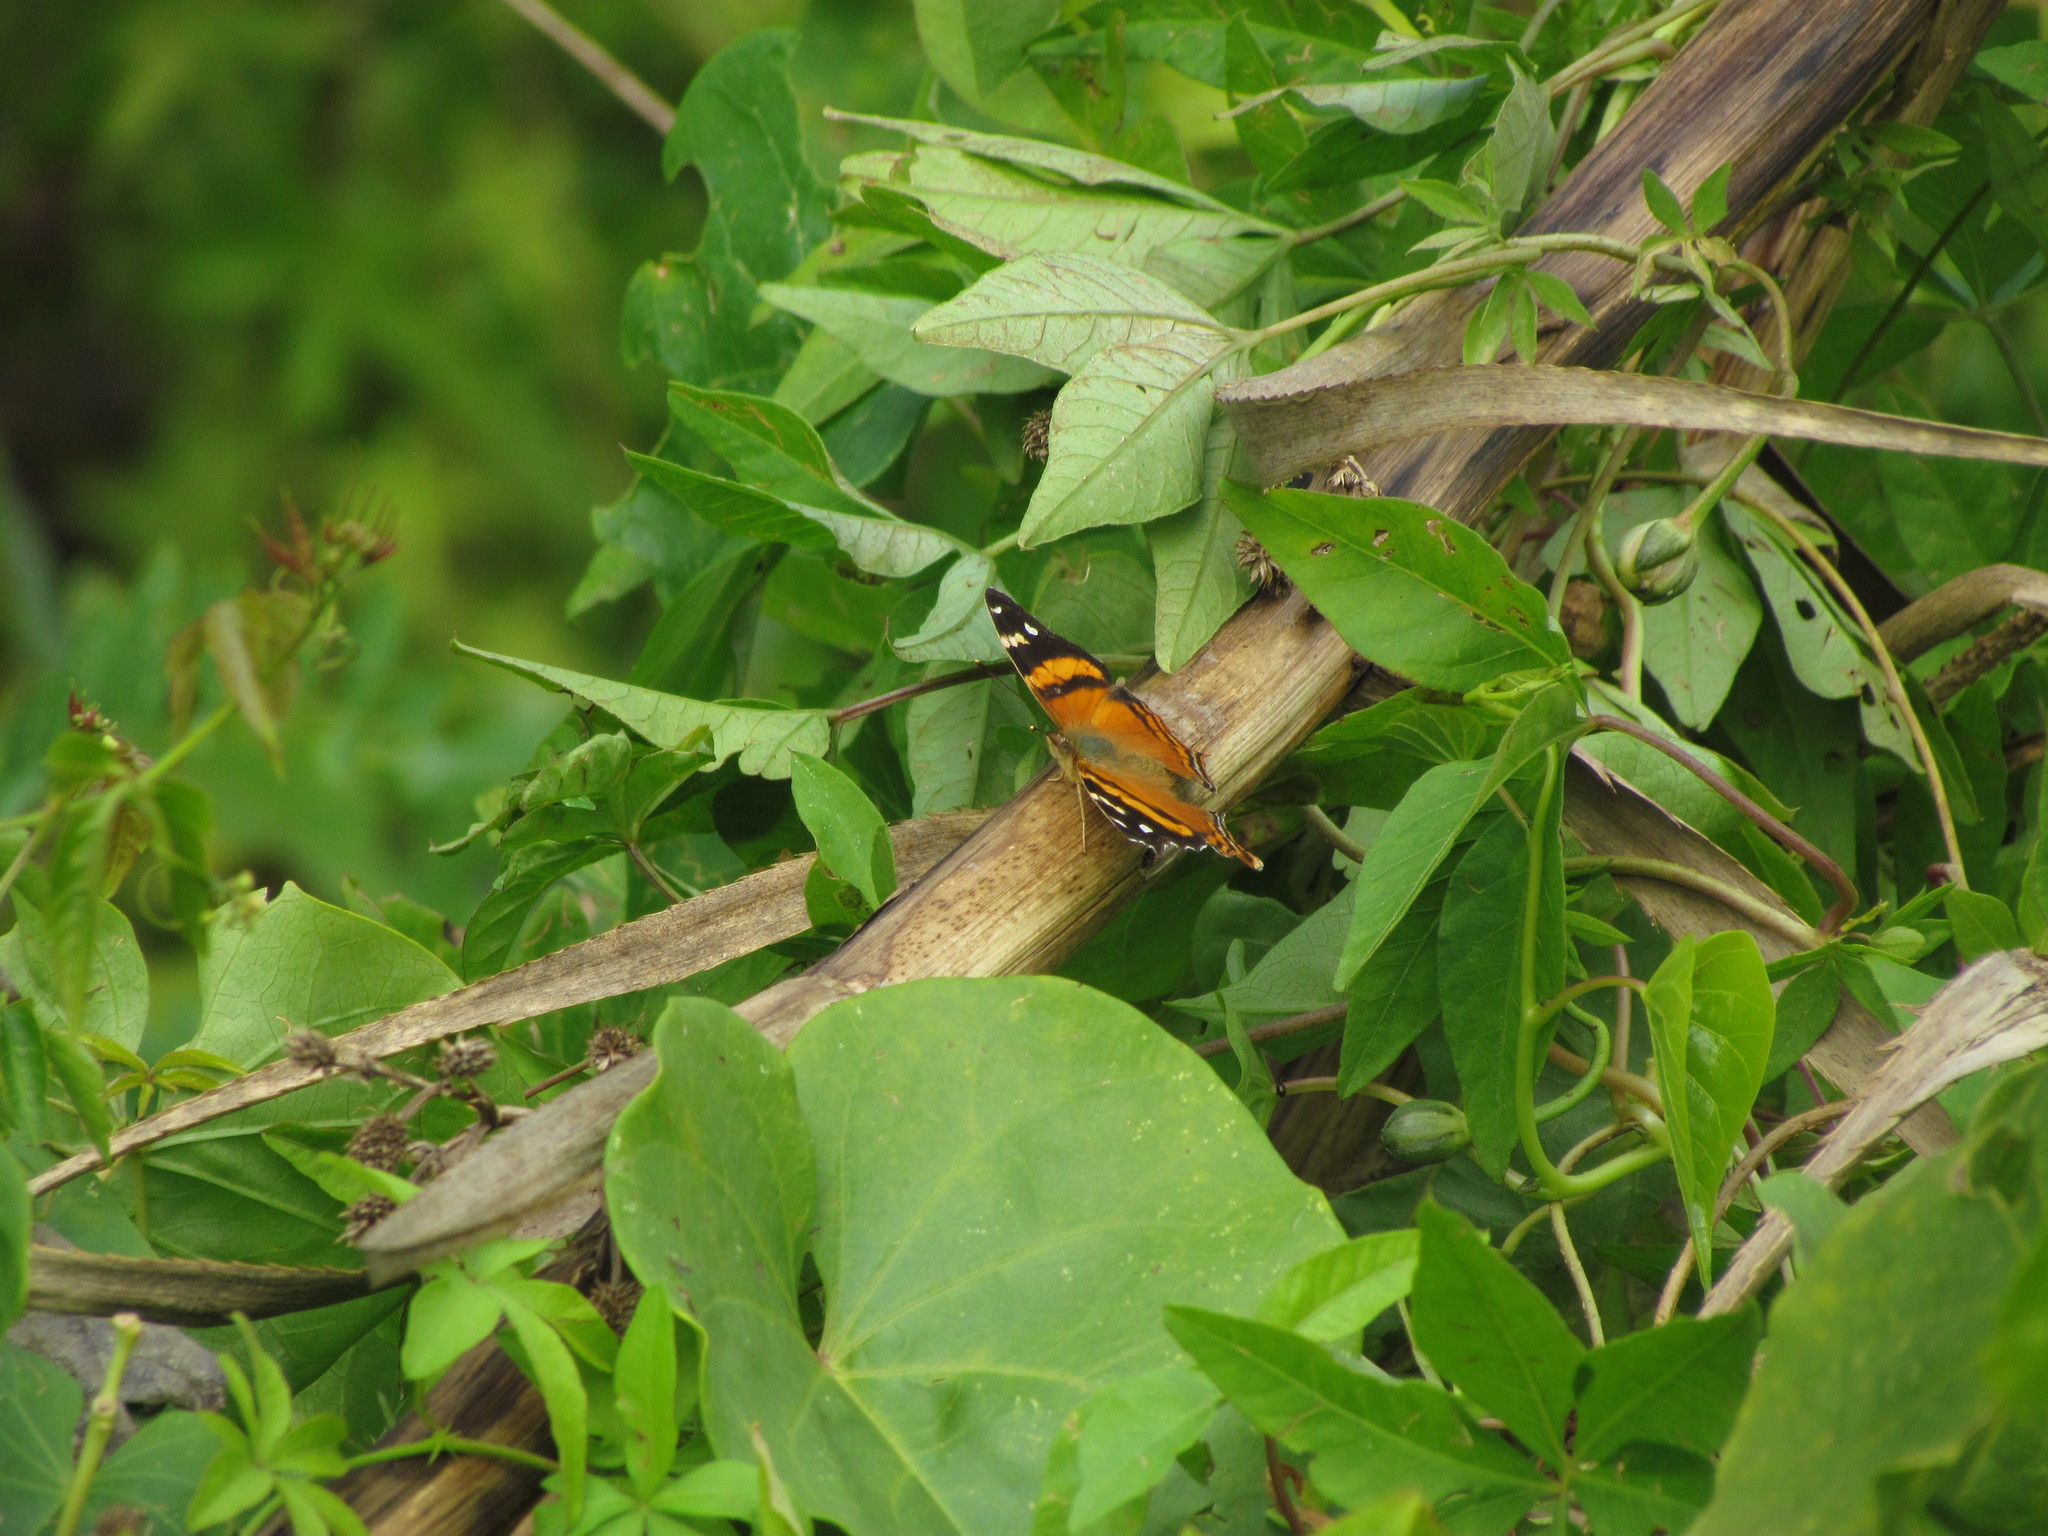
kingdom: Animalia
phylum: Arthropoda
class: Insecta
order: Lepidoptera
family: Nymphalidae
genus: Hypanartia
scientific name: Hypanartia bella
